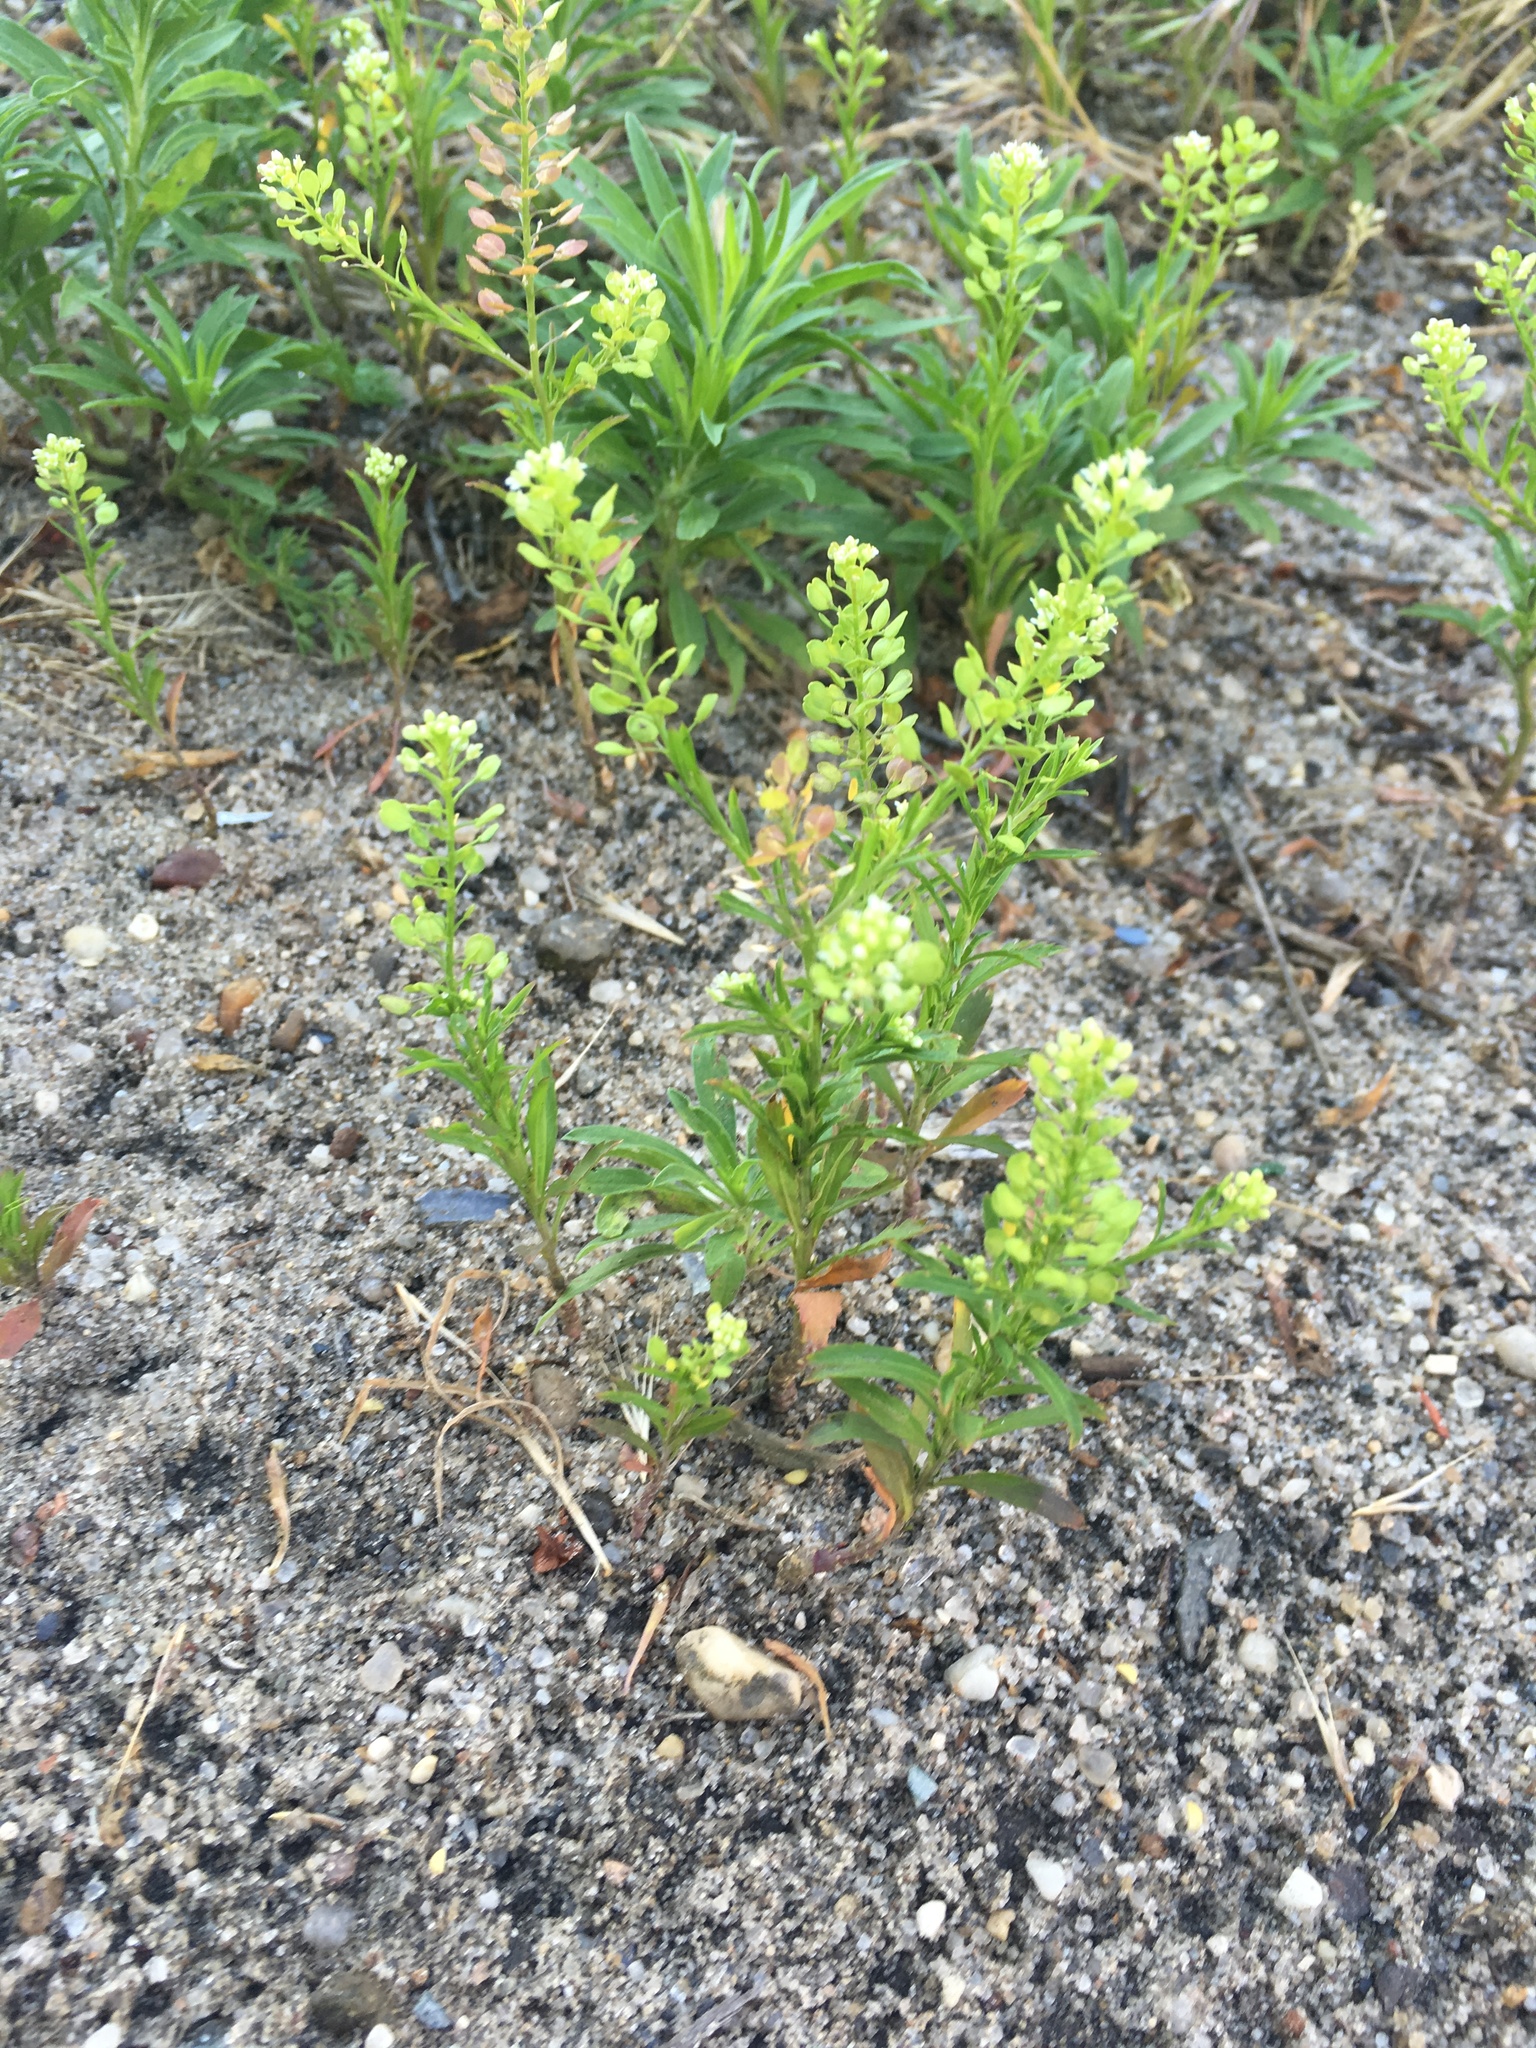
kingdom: Plantae
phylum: Tracheophyta
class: Magnoliopsida
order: Brassicales
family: Brassicaceae
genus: Lepidium
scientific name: Lepidium virginicum
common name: Least pepperwort
